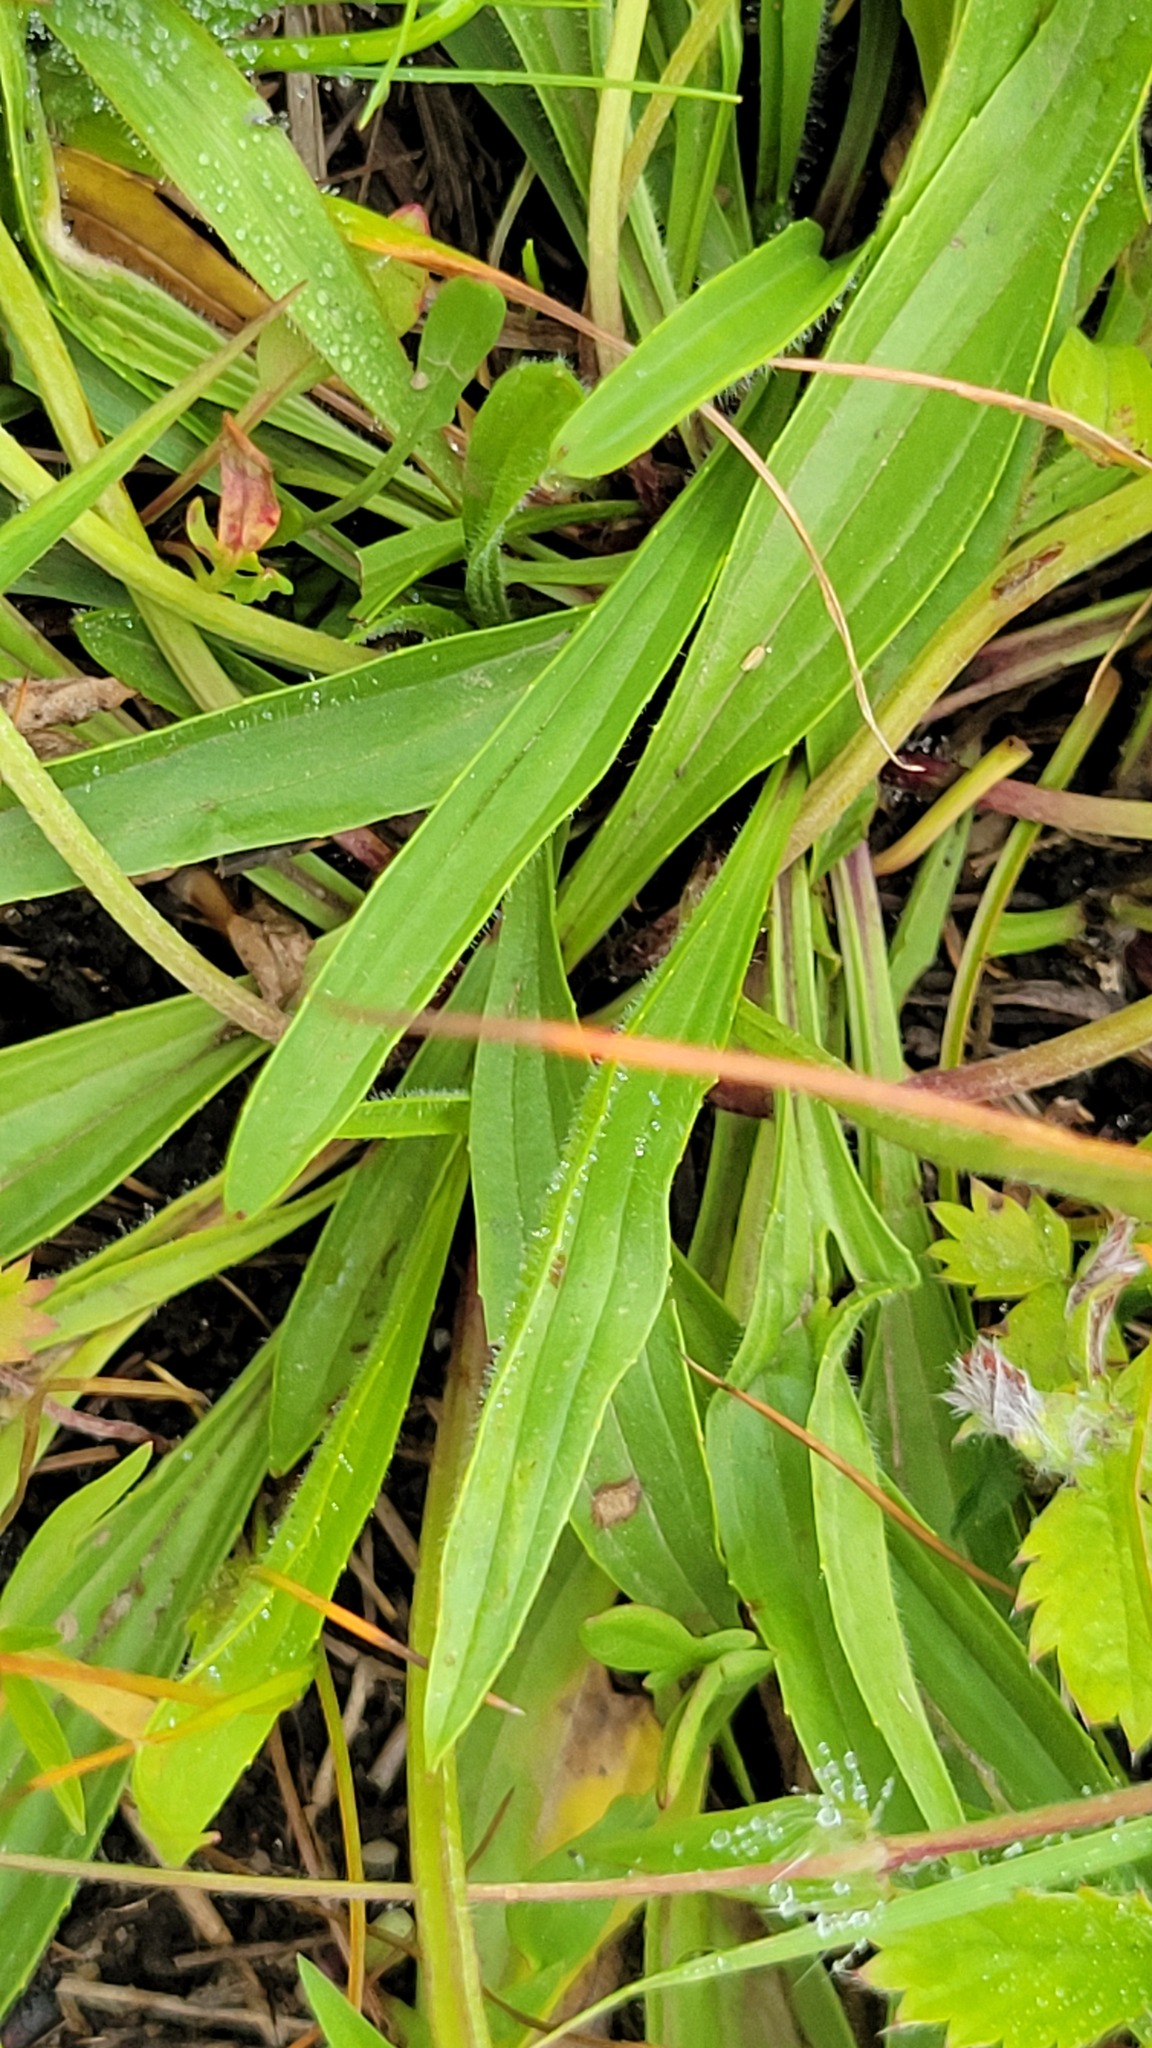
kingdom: Plantae
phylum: Tracheophyta
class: Magnoliopsida
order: Lamiales
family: Plantaginaceae
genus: Plantago
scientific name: Plantago lanceolata
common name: Ribwort plantain
